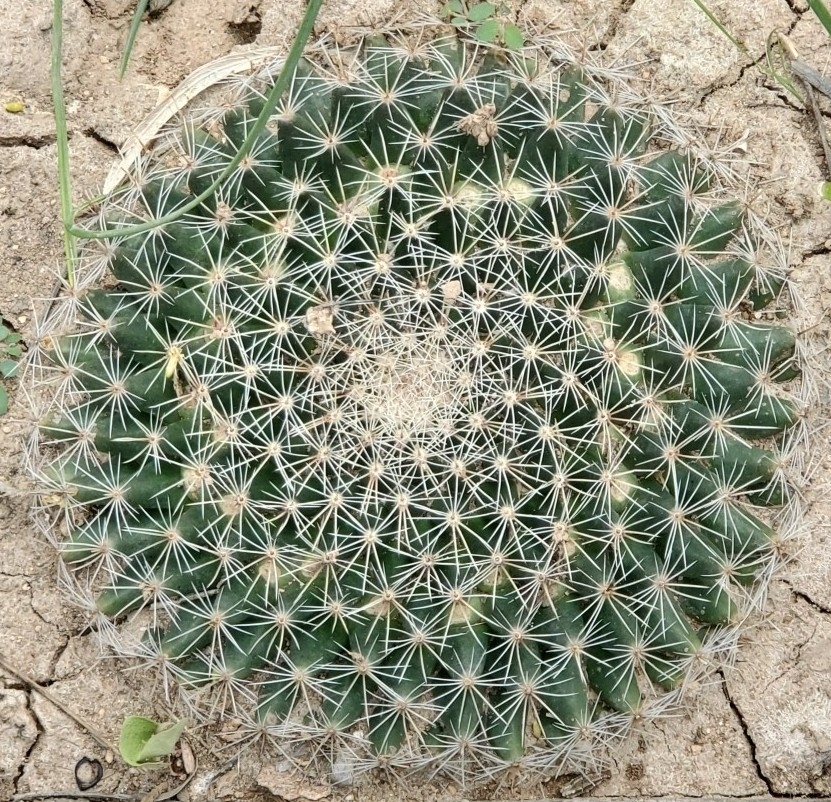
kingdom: Plantae
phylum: Tracheophyta
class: Magnoliopsida
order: Caryophyllales
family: Cactaceae
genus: Mammillaria
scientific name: Mammillaria heyderi
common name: Little nipple cactus
